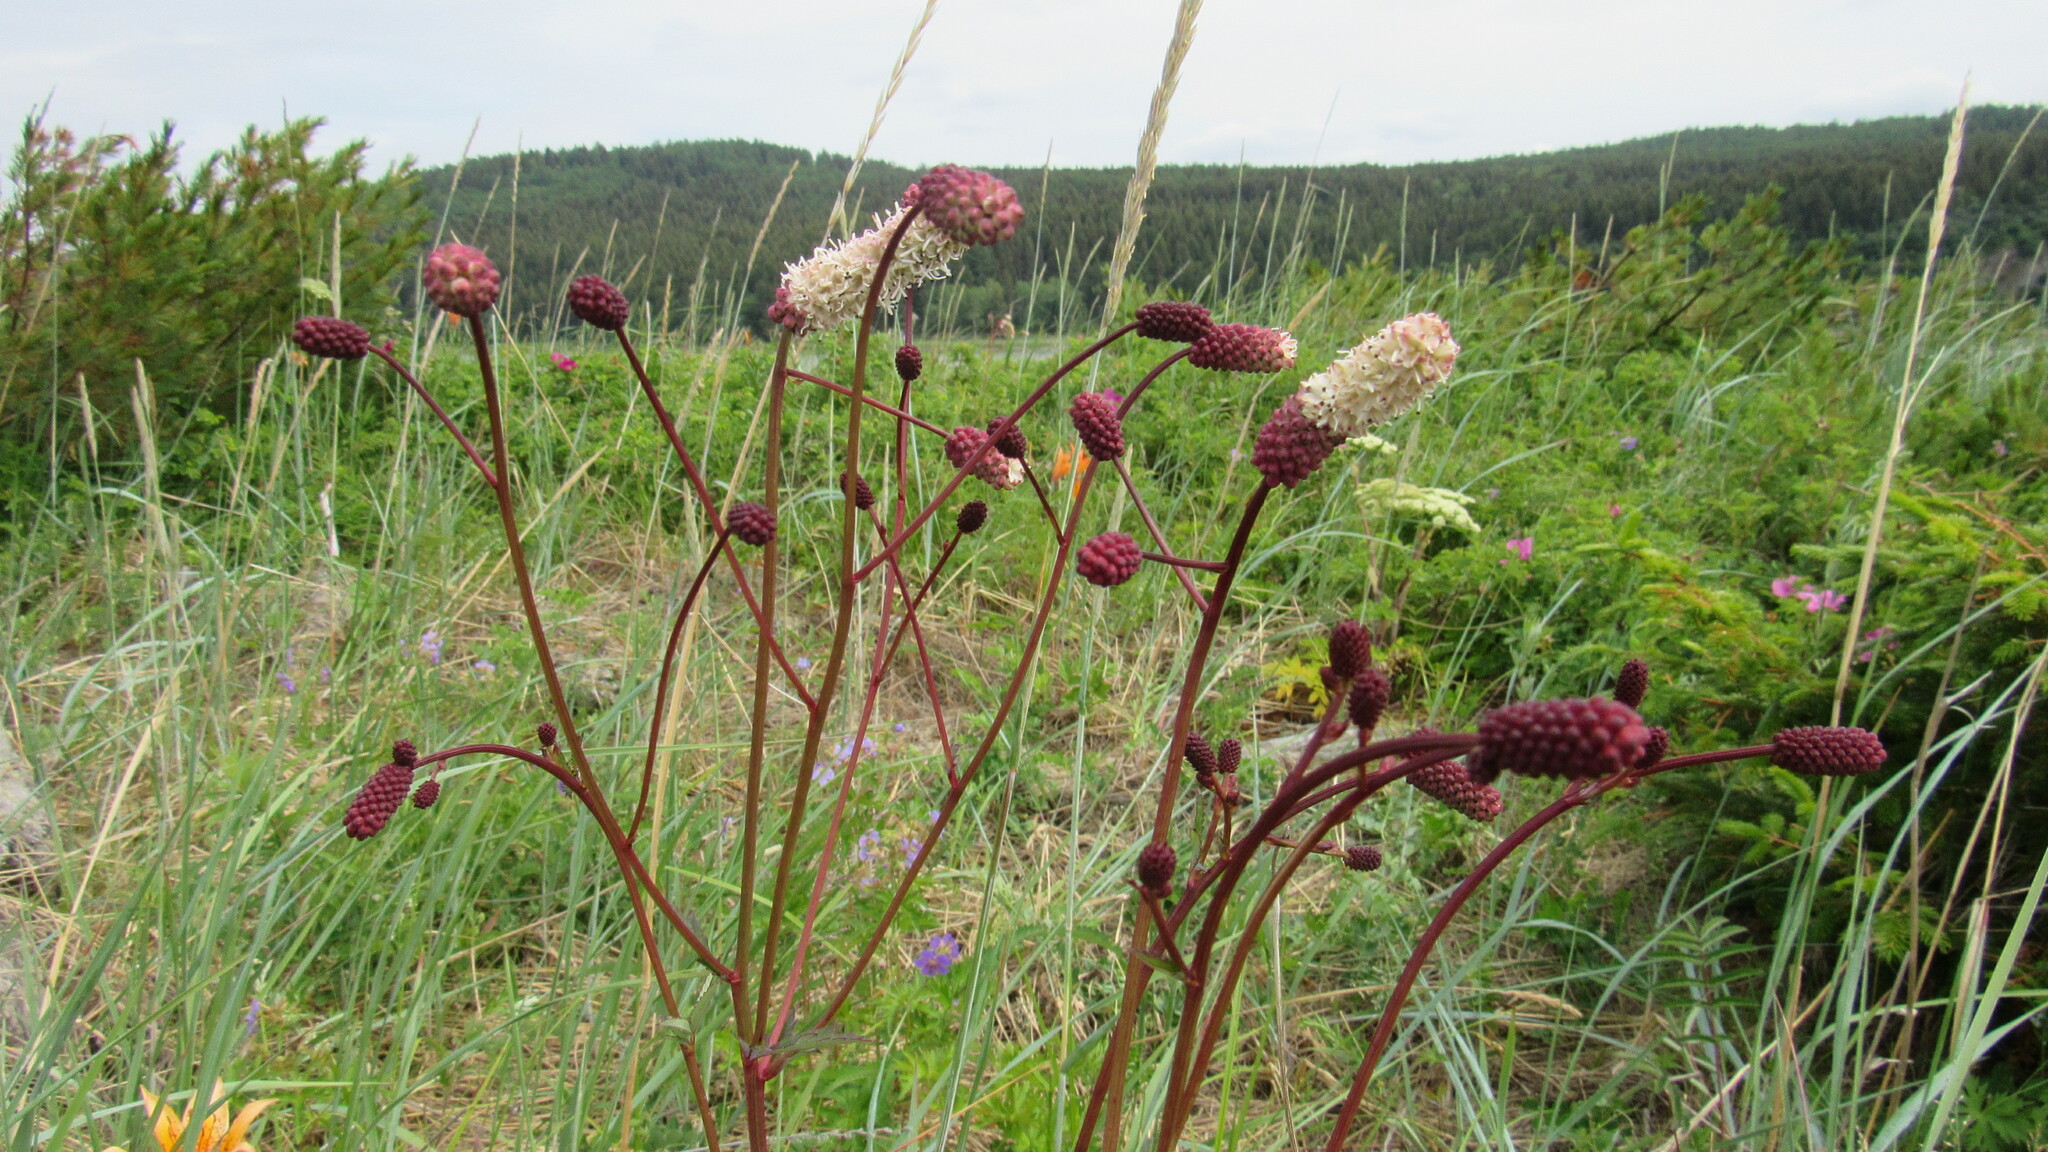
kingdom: Plantae
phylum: Tracheophyta
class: Magnoliopsida
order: Rosales
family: Rosaceae
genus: Poterium
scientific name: Poterium tenuifolium
